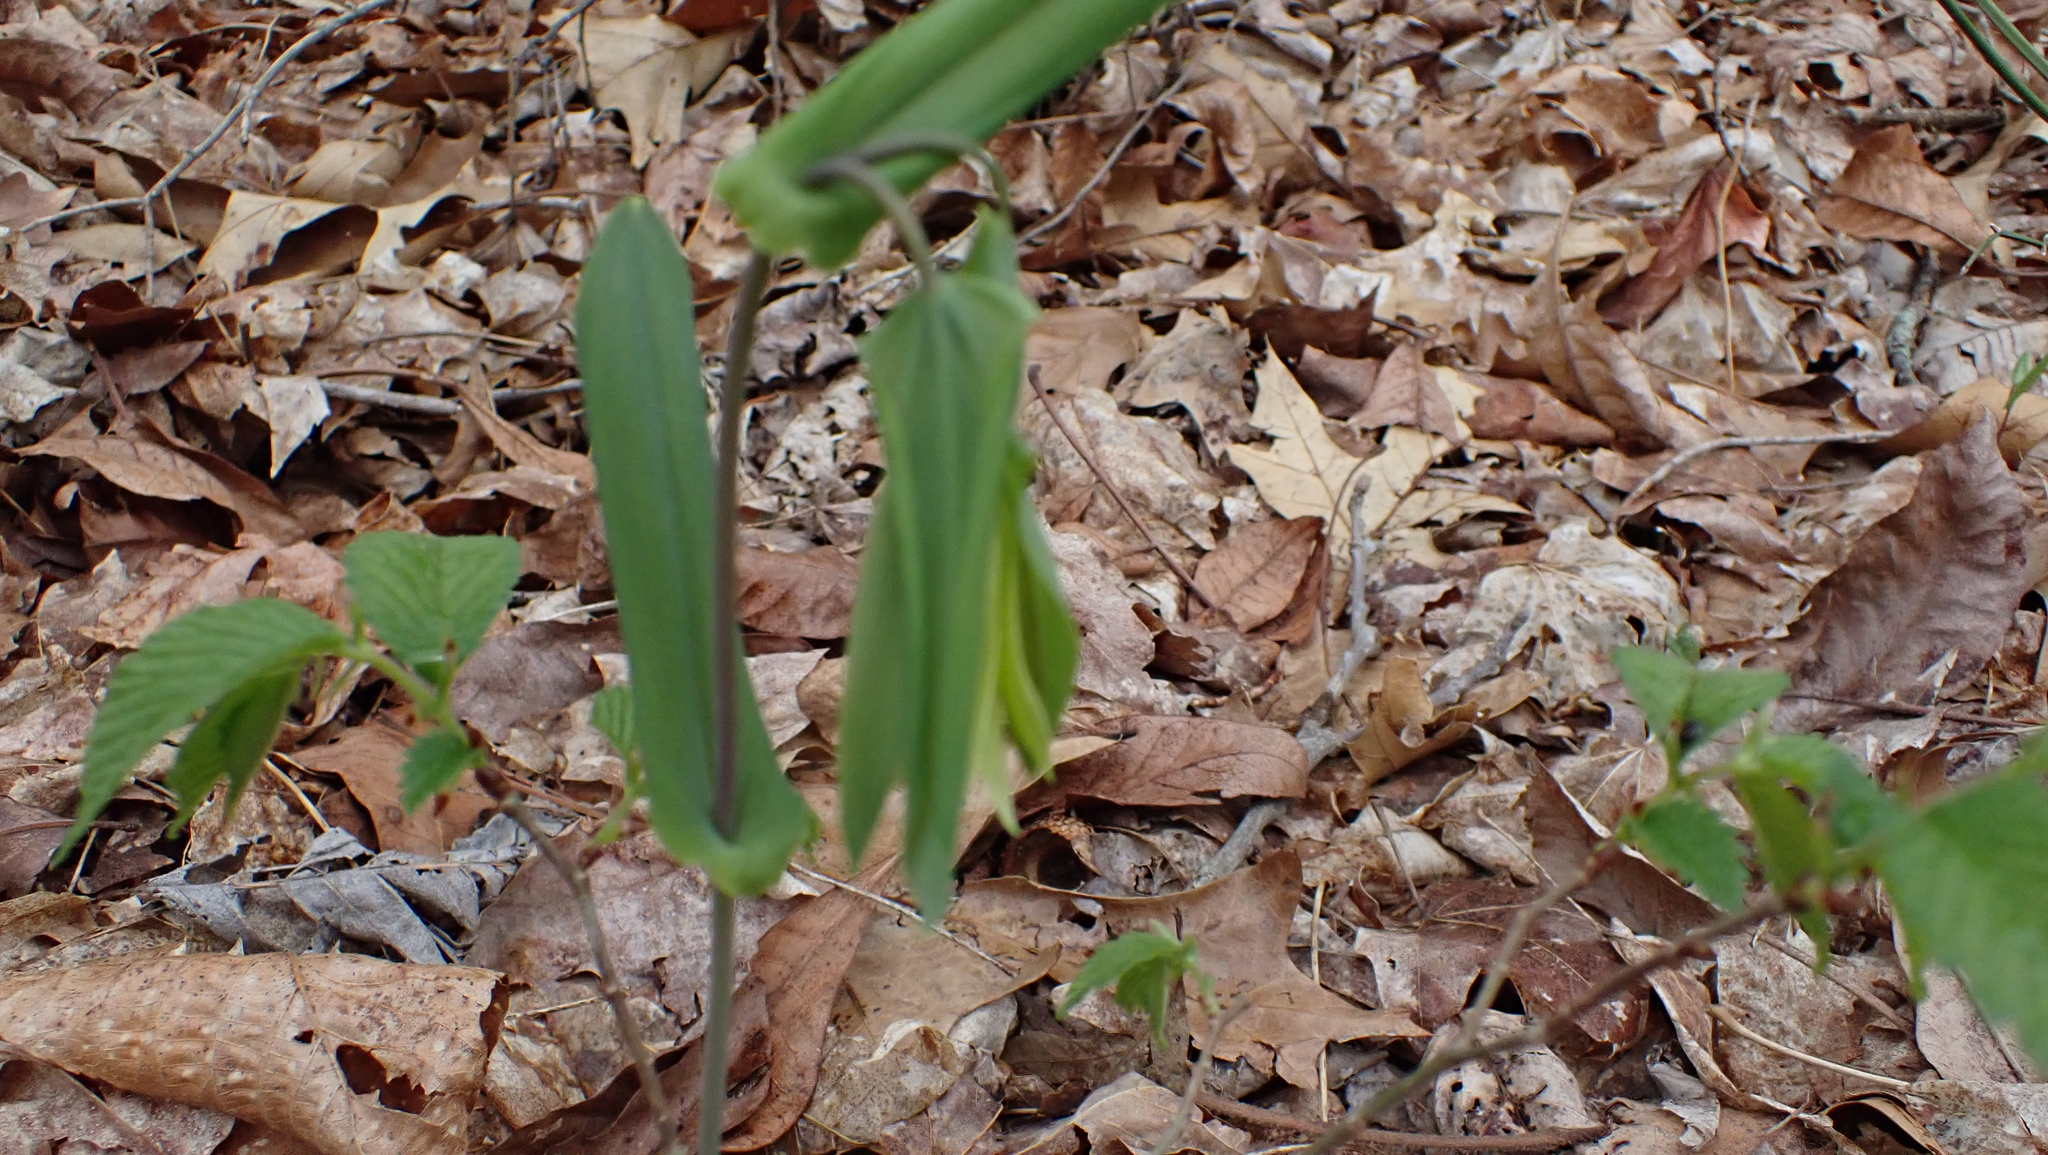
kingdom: Plantae
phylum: Tracheophyta
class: Liliopsida
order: Liliales
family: Colchicaceae
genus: Uvularia
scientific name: Uvularia perfoliata
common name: Perfoliate bellwort
